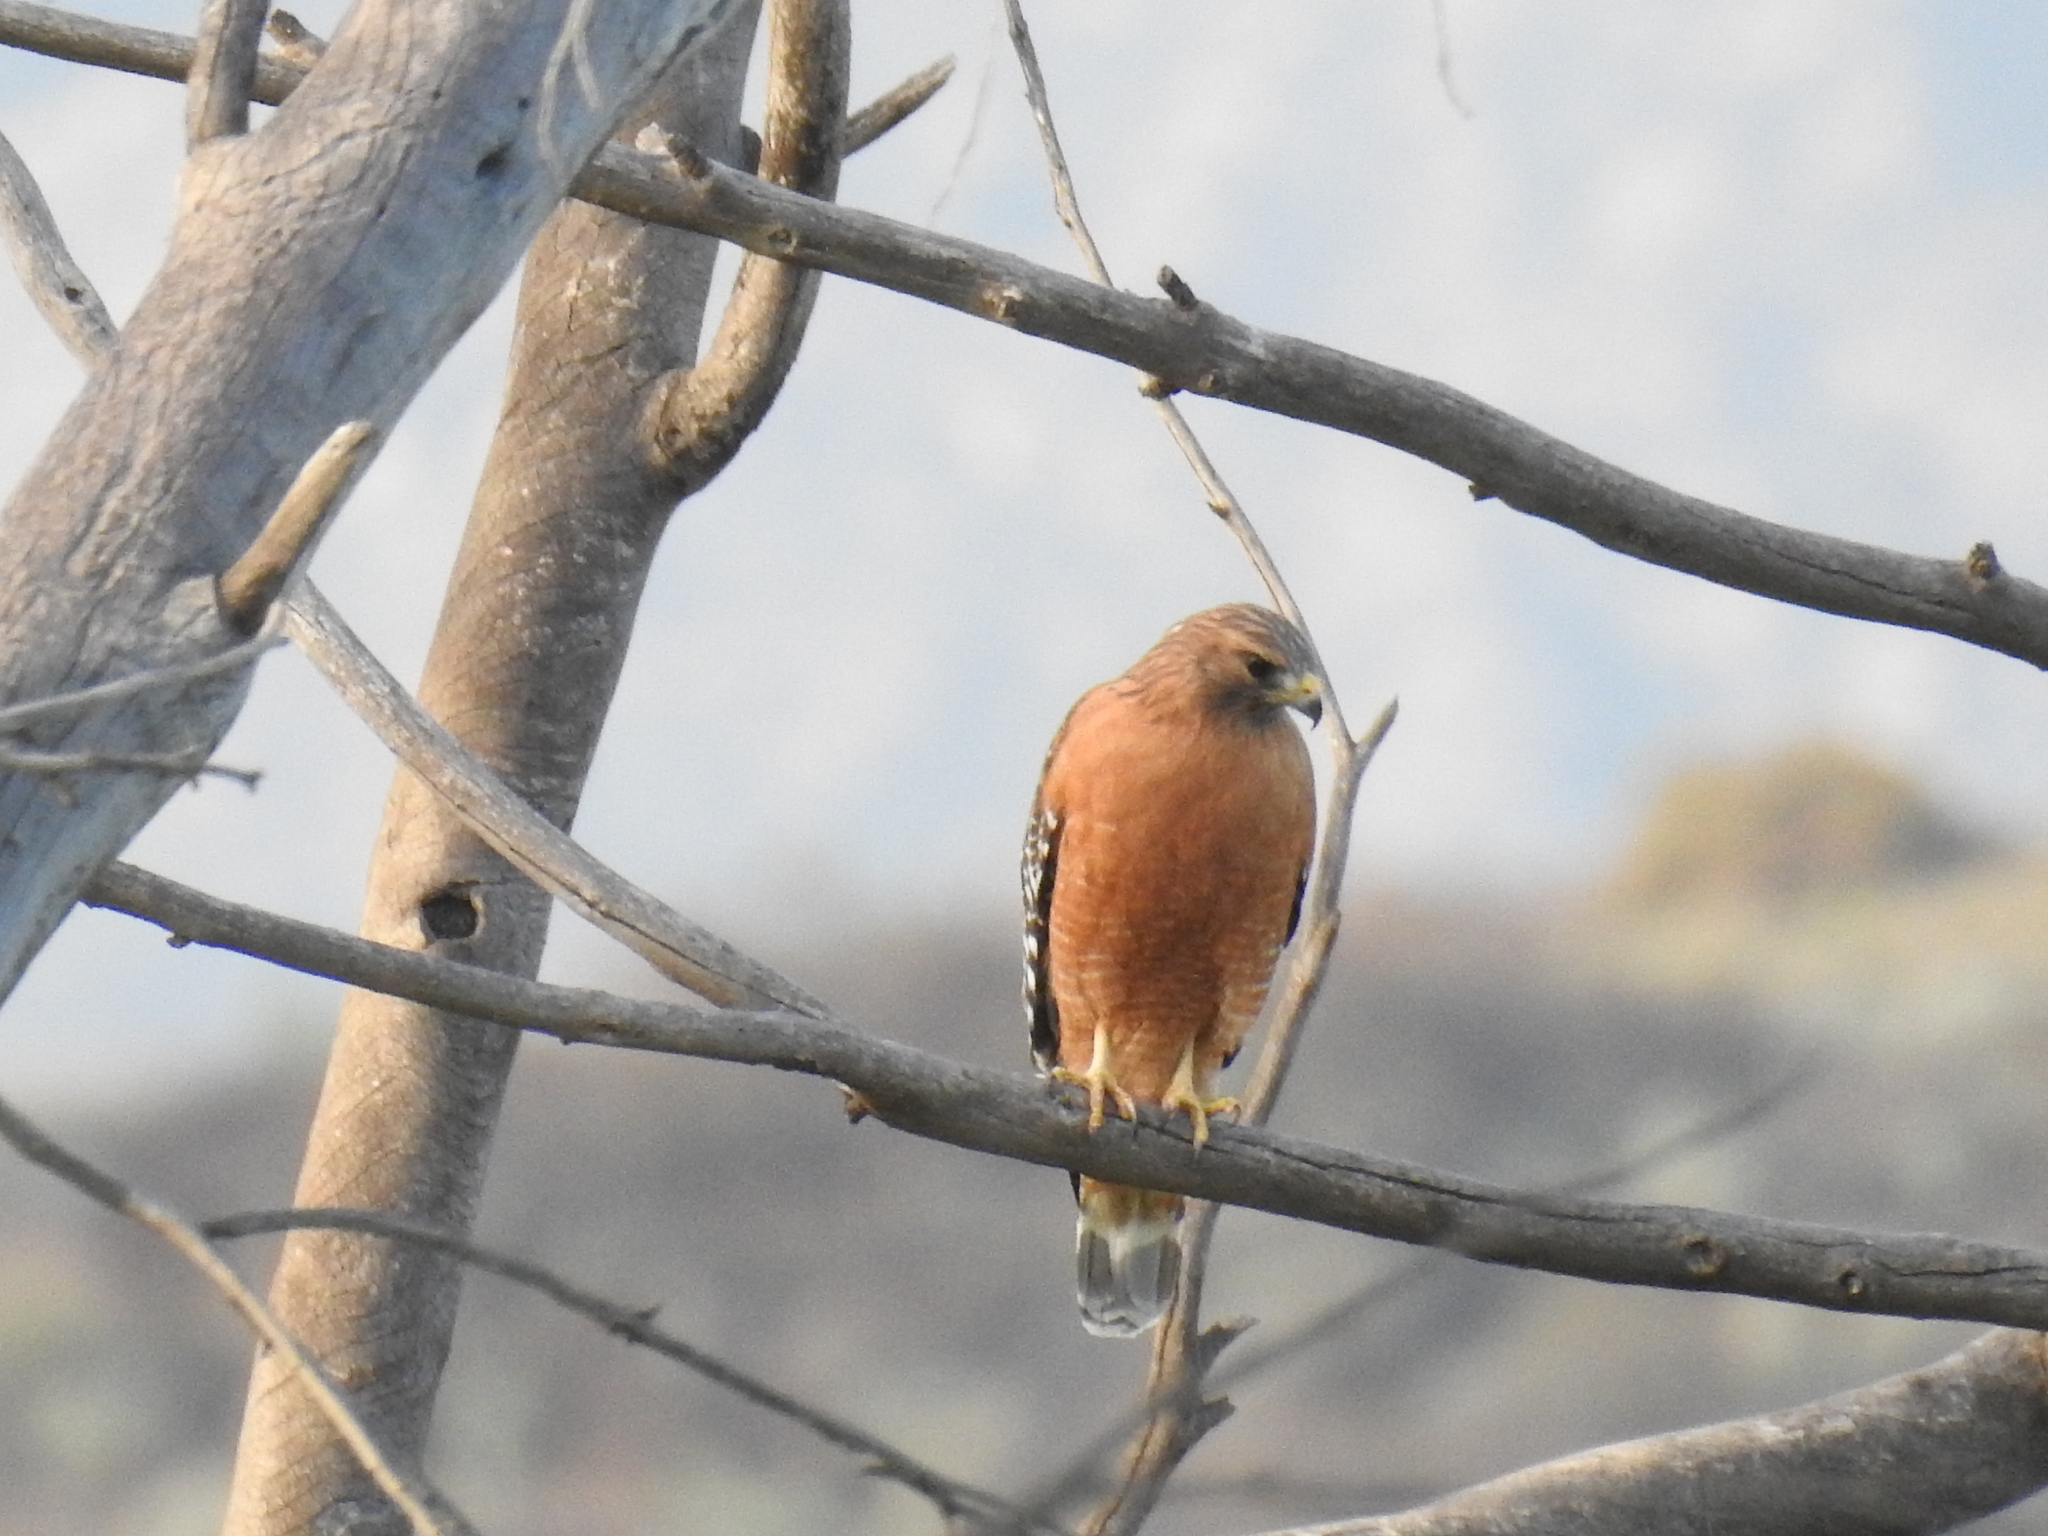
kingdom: Animalia
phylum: Chordata
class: Aves
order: Accipitriformes
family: Accipitridae
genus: Buteo
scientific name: Buteo lineatus
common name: Red-shouldered hawk
